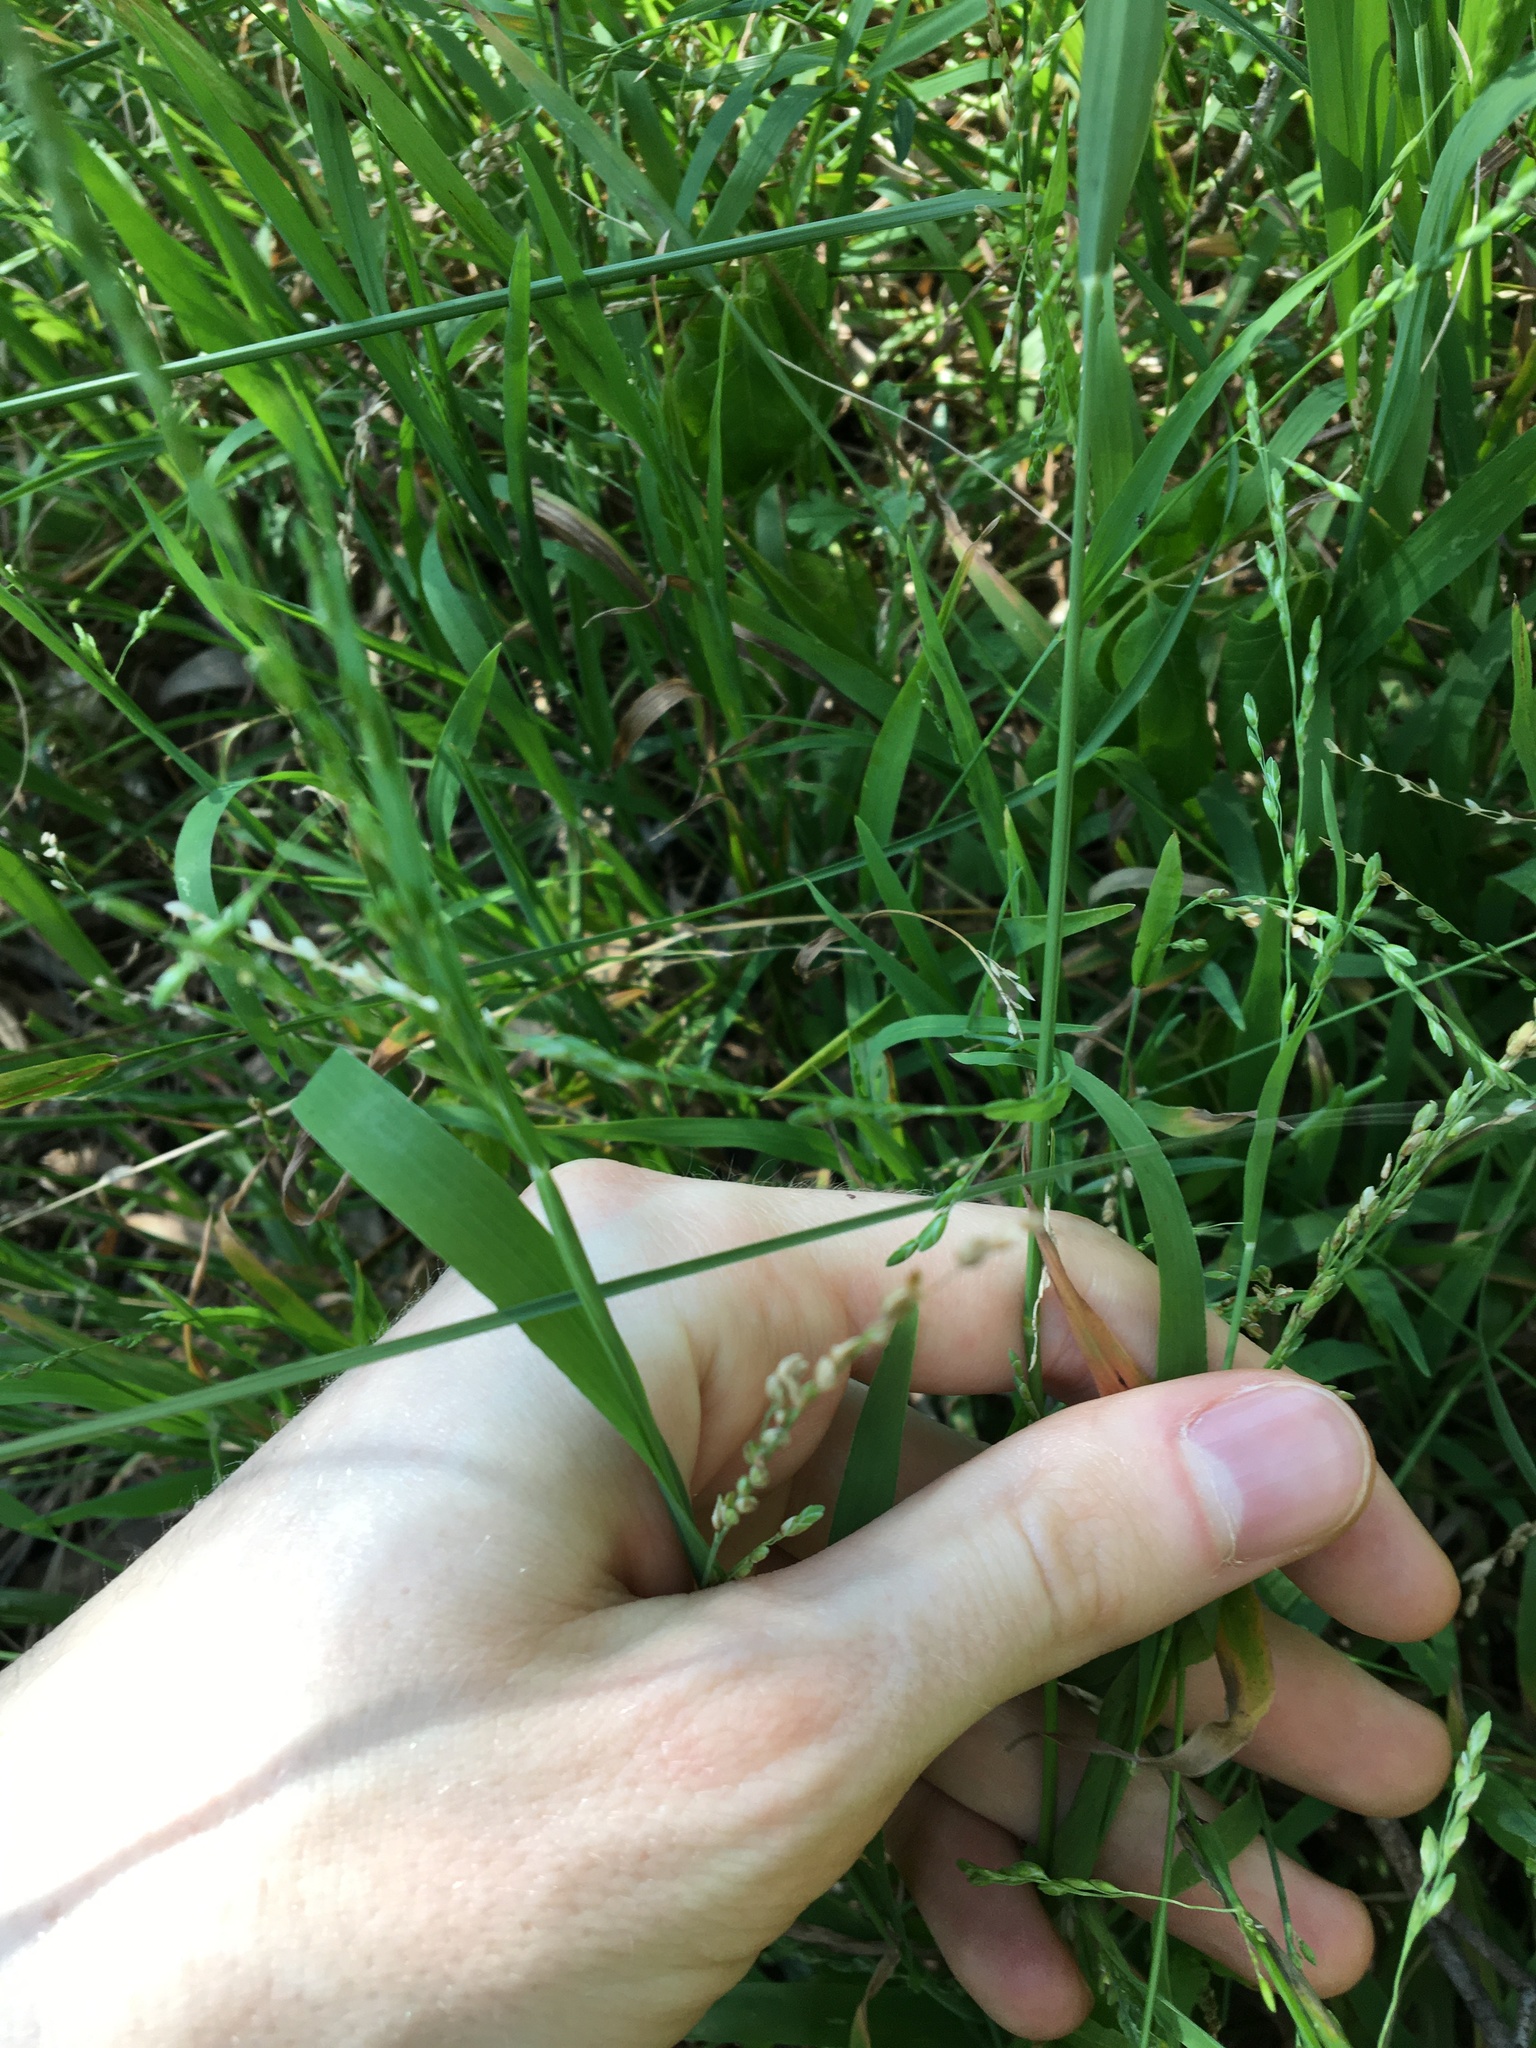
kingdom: Plantae
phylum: Tracheophyta
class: Liliopsida
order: Poales
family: Poaceae
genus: Ehrharta
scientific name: Ehrharta erecta
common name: Panic veldtgrass
